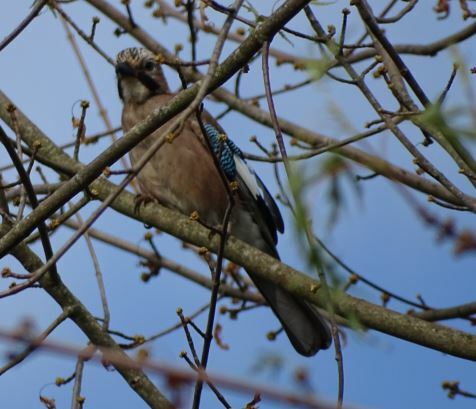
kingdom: Animalia
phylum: Chordata
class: Aves
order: Passeriformes
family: Corvidae
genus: Garrulus
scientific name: Garrulus glandarius
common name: Eurasian jay
